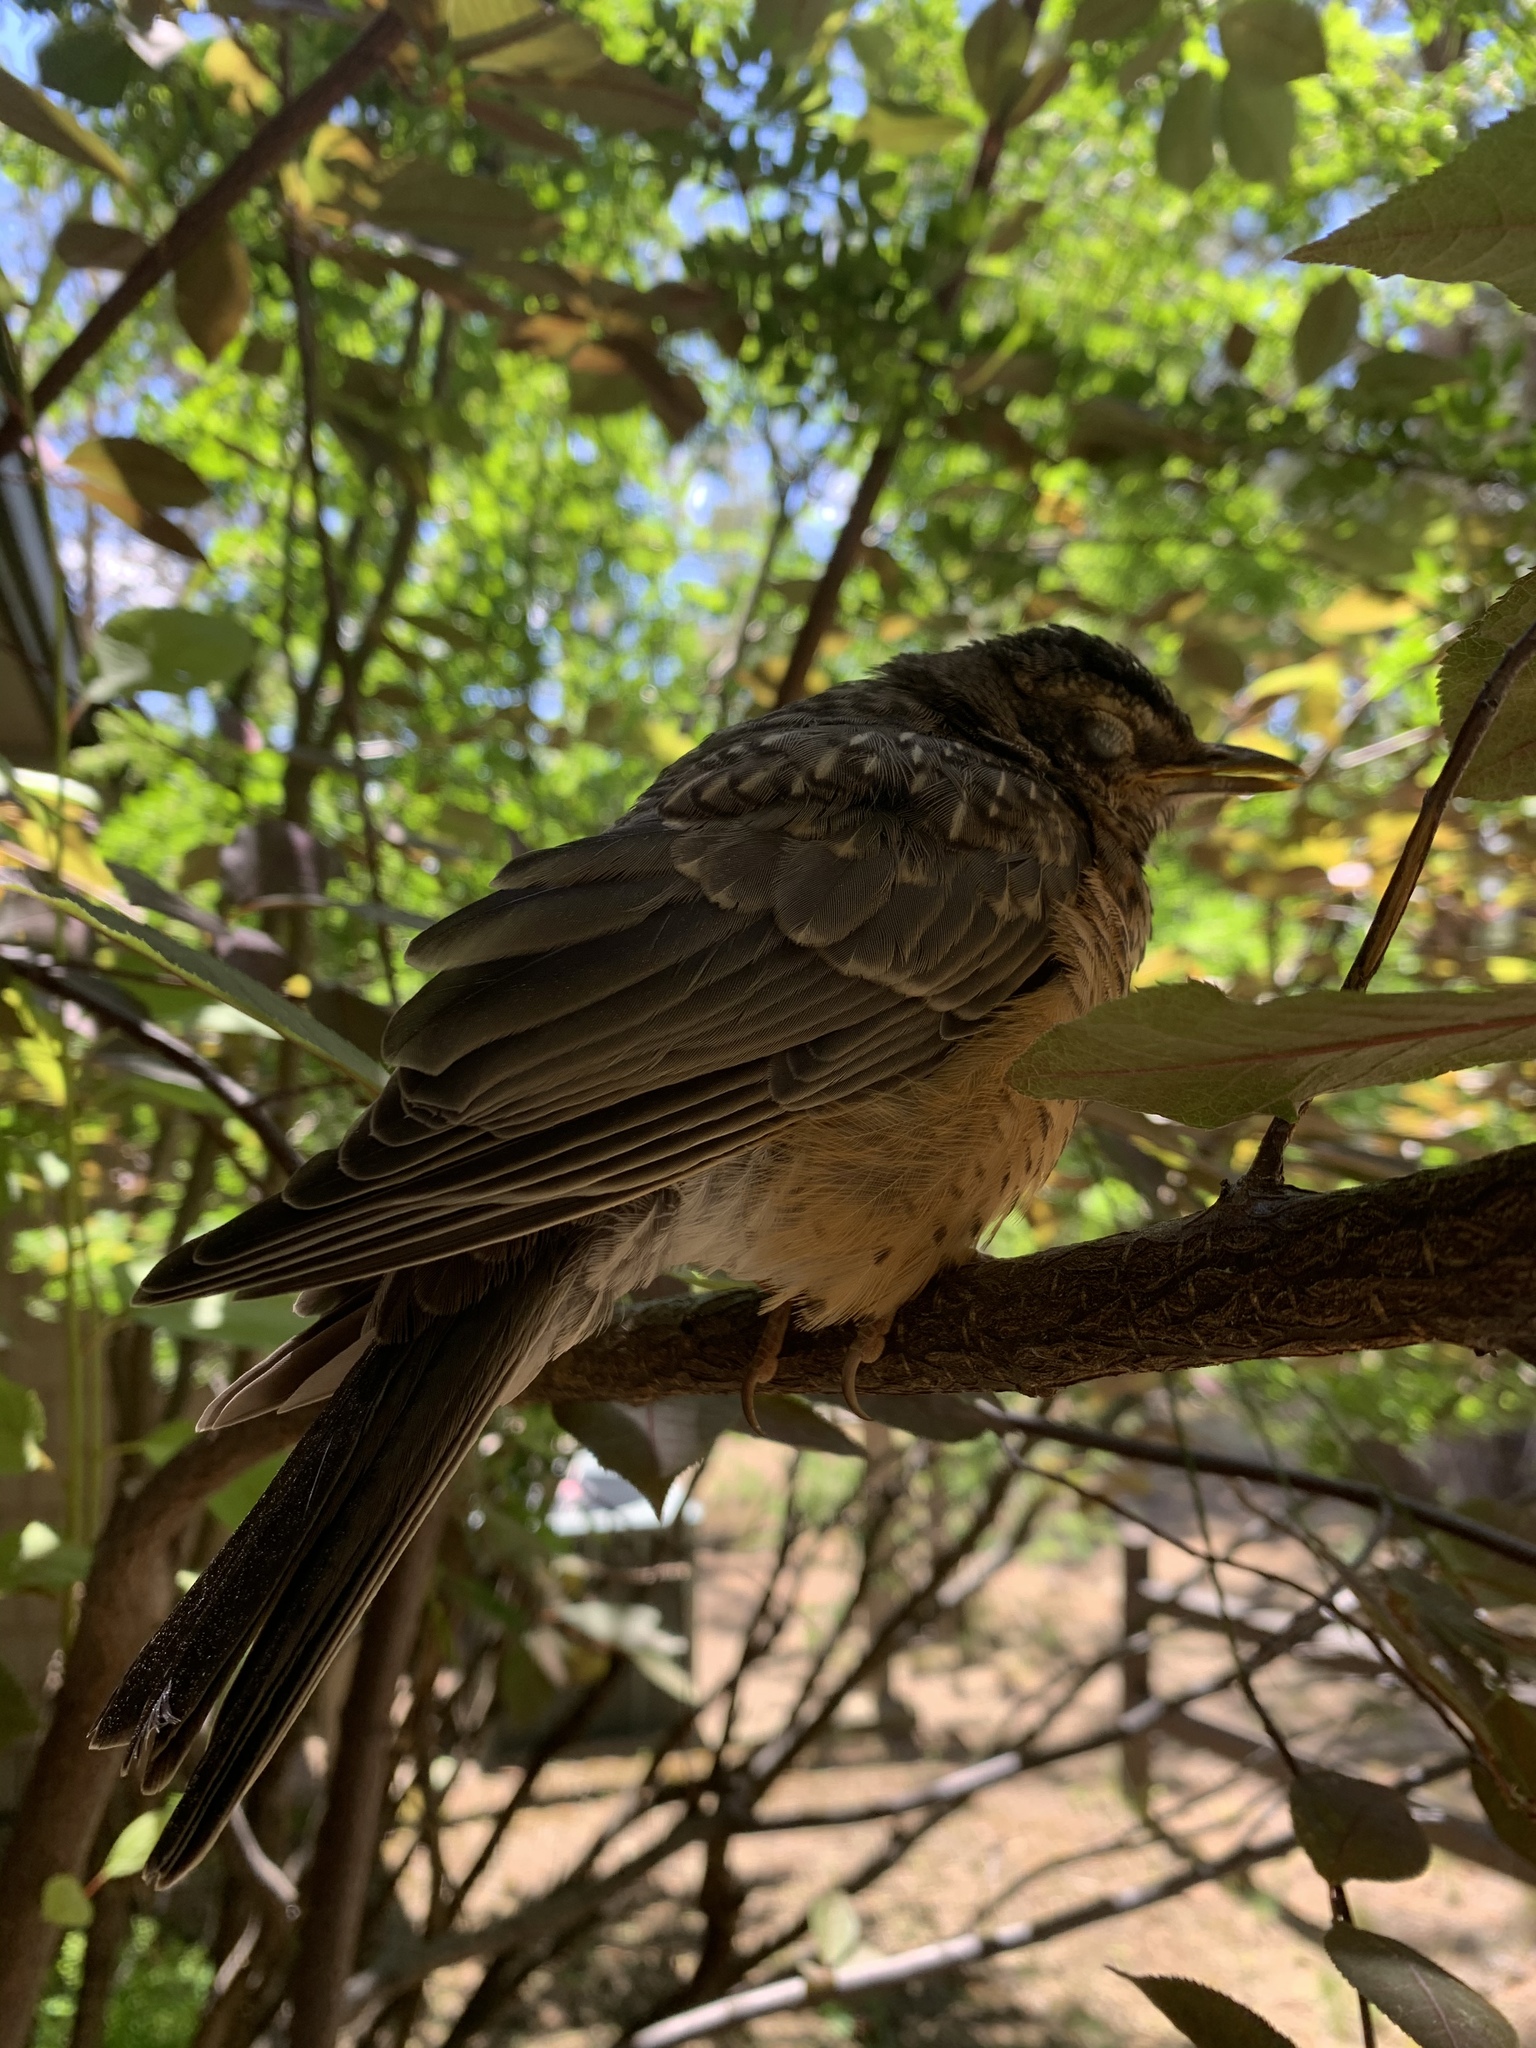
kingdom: Animalia
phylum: Chordata
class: Aves
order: Passeriformes
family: Turdidae
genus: Turdus
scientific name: Turdus migratorius
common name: American robin
